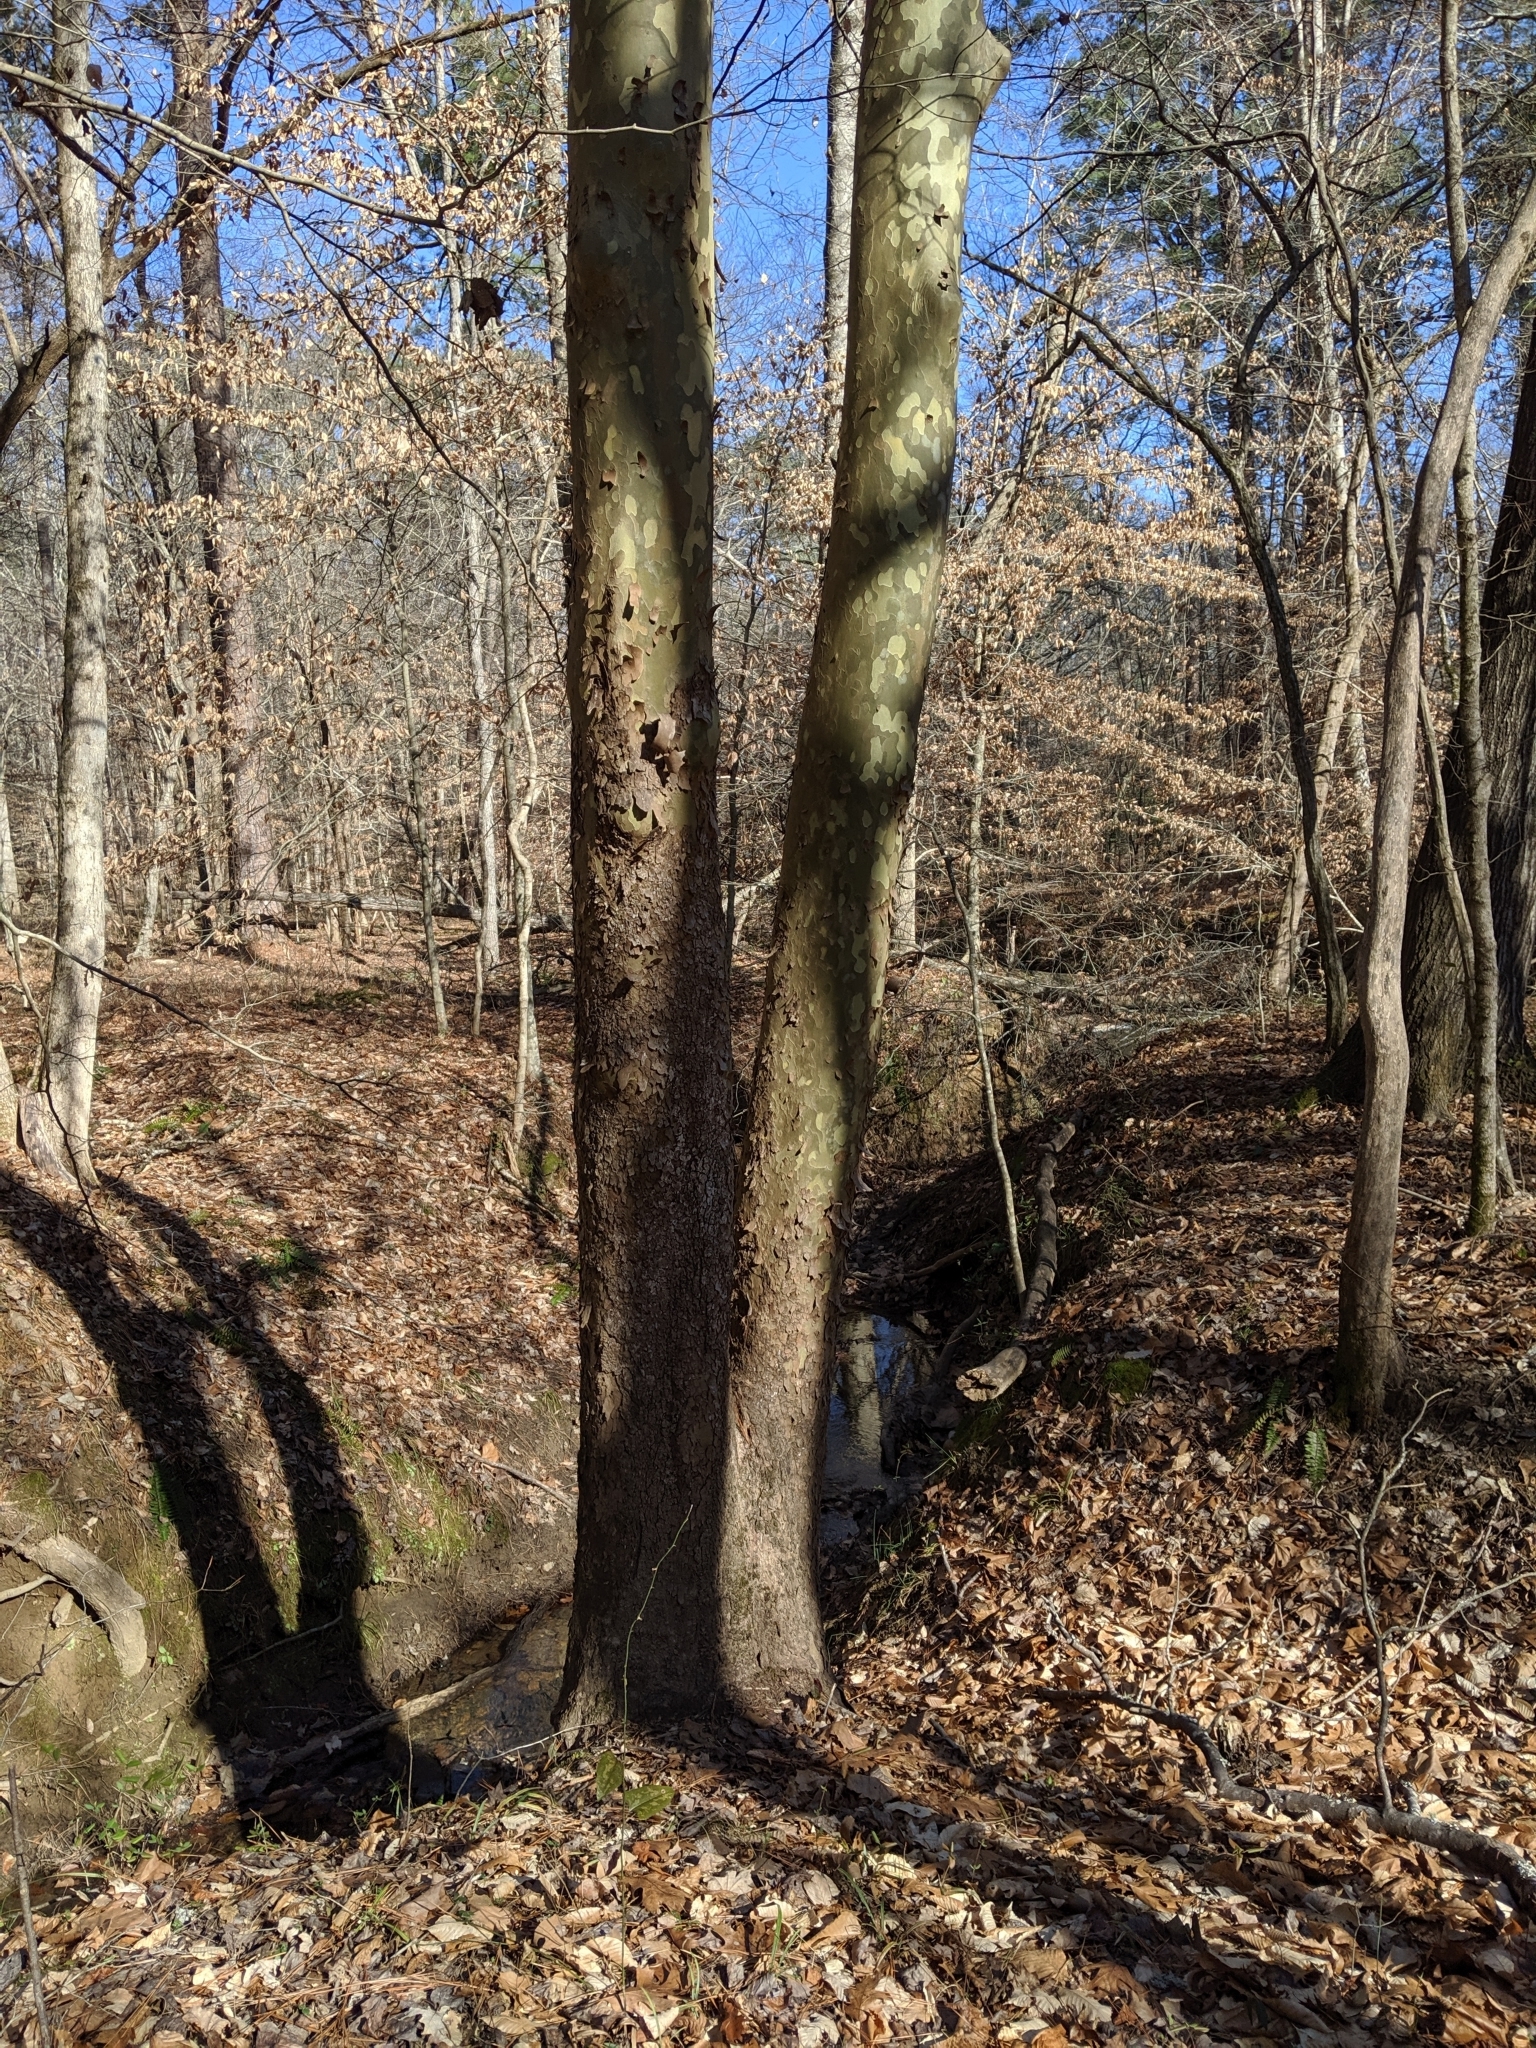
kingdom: Plantae
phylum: Tracheophyta
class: Magnoliopsida
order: Proteales
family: Platanaceae
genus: Platanus
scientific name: Platanus occidentalis
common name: American sycamore
